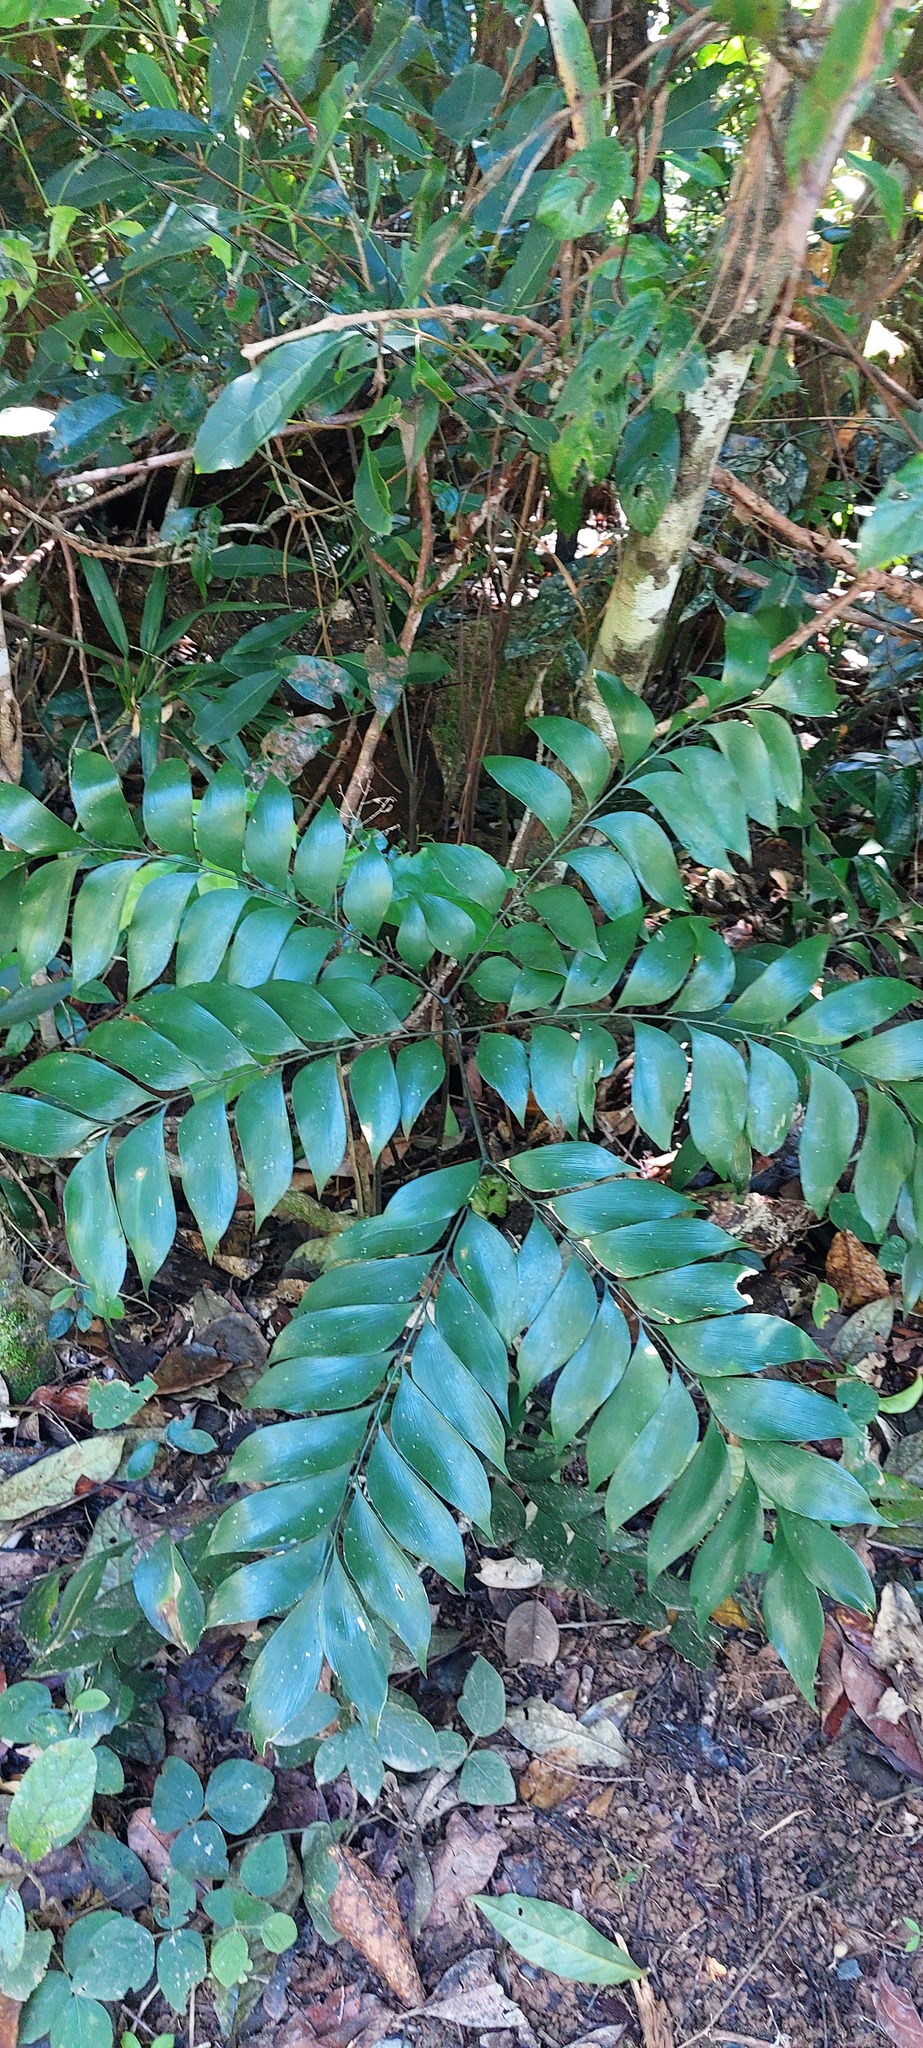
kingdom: Plantae
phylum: Tracheophyta
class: Cycadopsida
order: Cycadales
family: Zamiaceae
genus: Bowenia
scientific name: Bowenia spectabilis
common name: Zamia-fern
